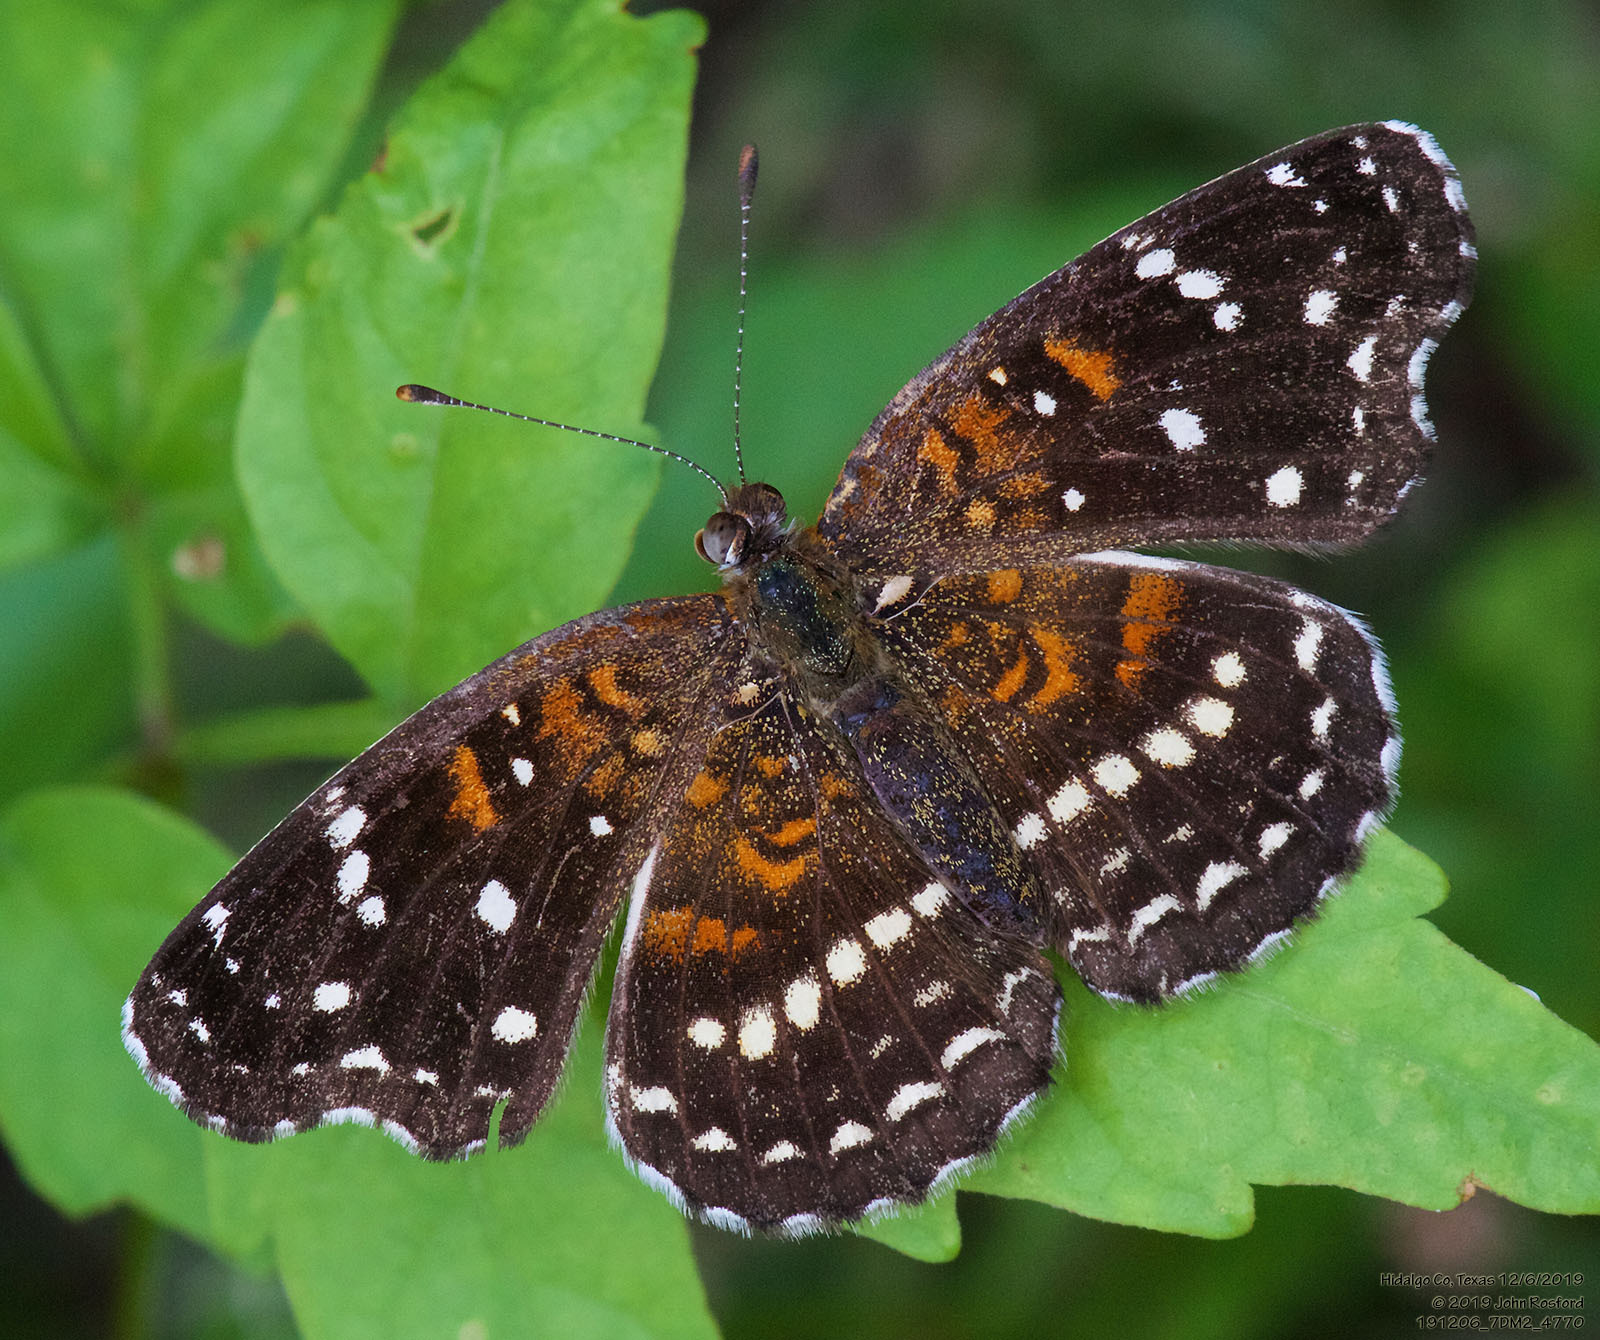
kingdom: Animalia
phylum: Arthropoda
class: Insecta
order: Lepidoptera
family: Nymphalidae
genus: Anthanassa
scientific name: Anthanassa texana
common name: Texan crescent
